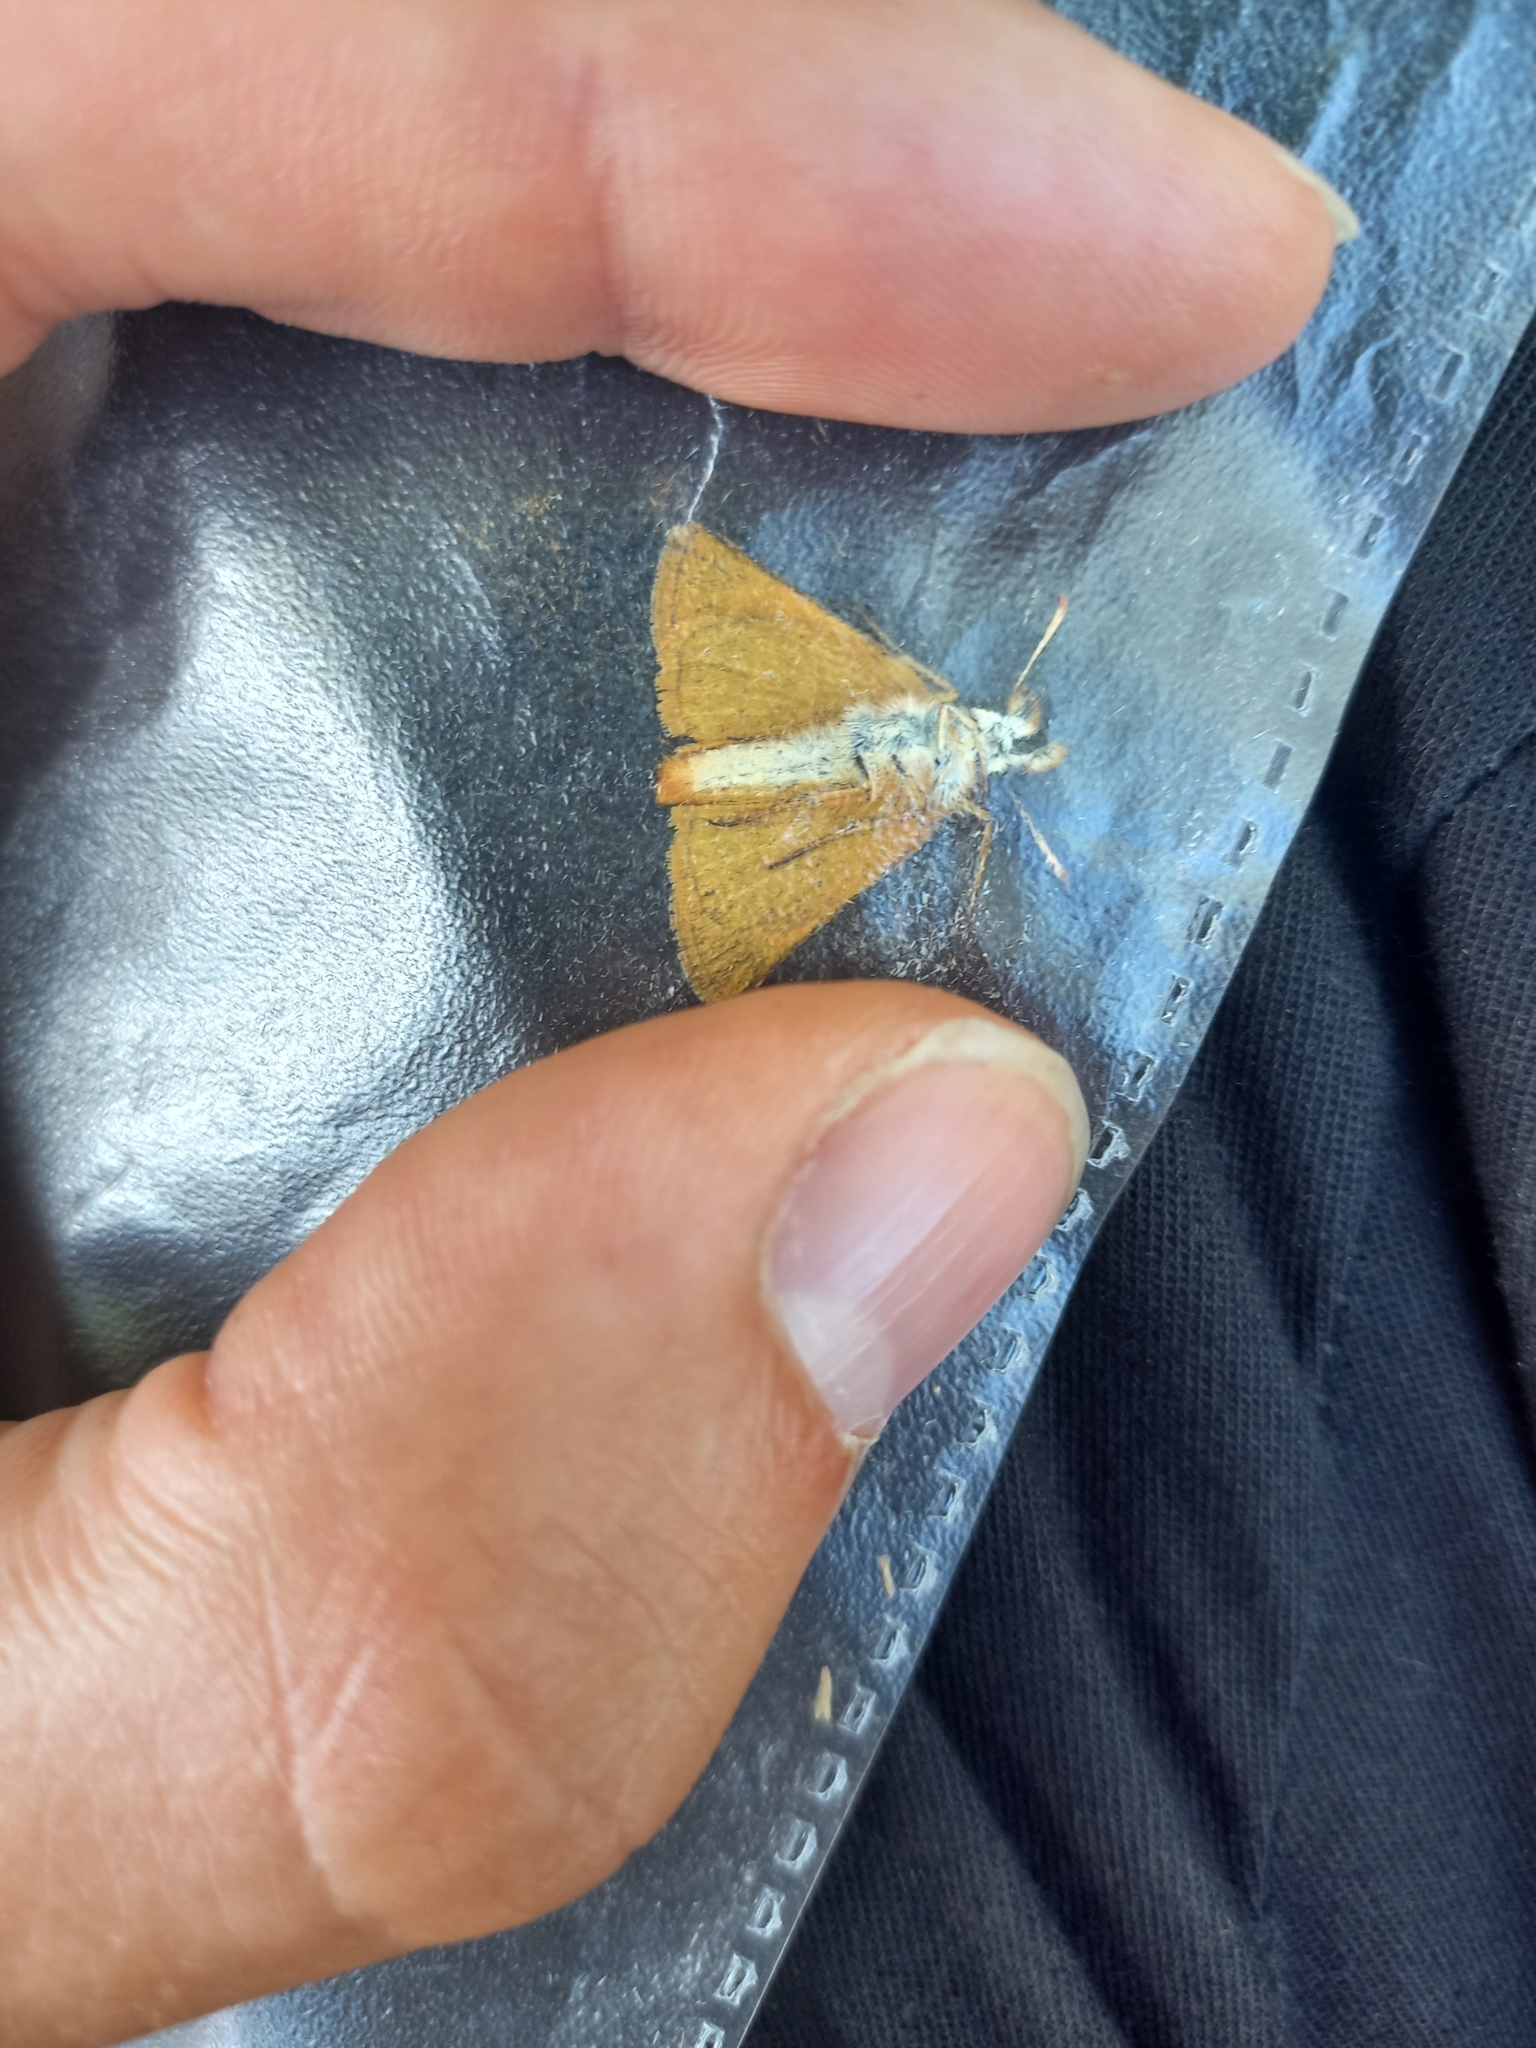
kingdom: Animalia
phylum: Arthropoda
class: Insecta
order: Lepidoptera
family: Hesperiidae
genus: Thymelicus
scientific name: Thymelicus acteon
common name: Lulworth skipper
